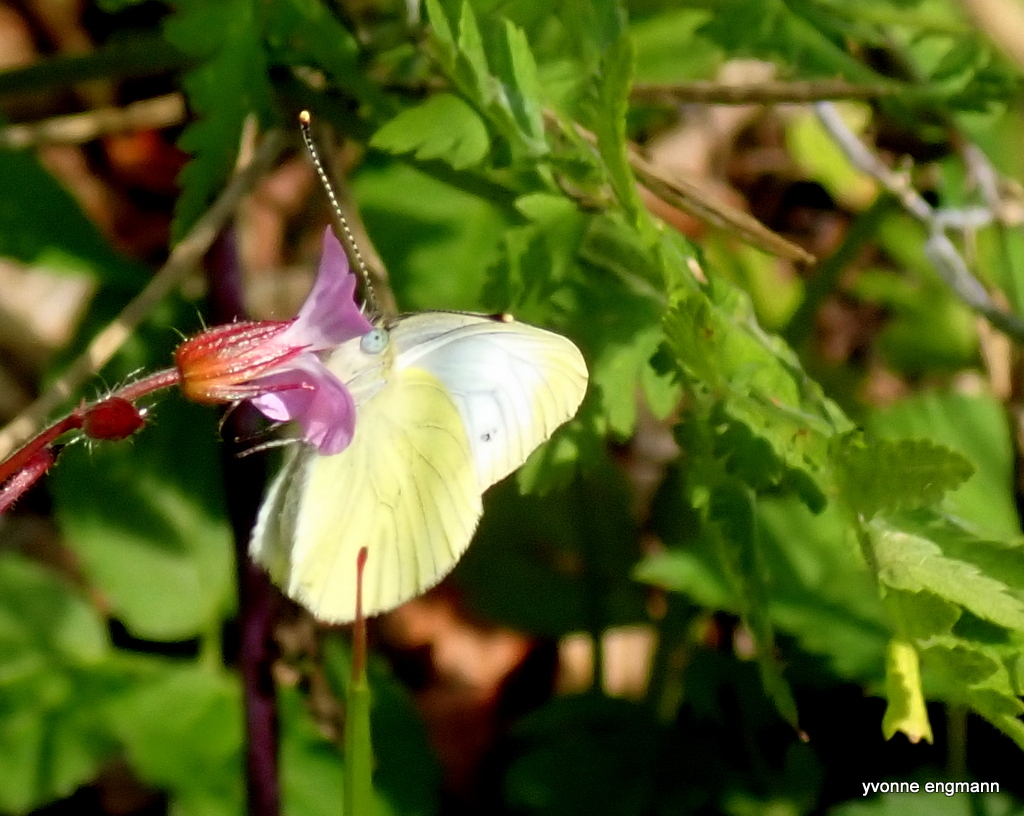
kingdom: Animalia
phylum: Arthropoda
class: Insecta
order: Lepidoptera
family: Pieridae
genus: Pieris
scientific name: Pieris napi
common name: Green-veined white
